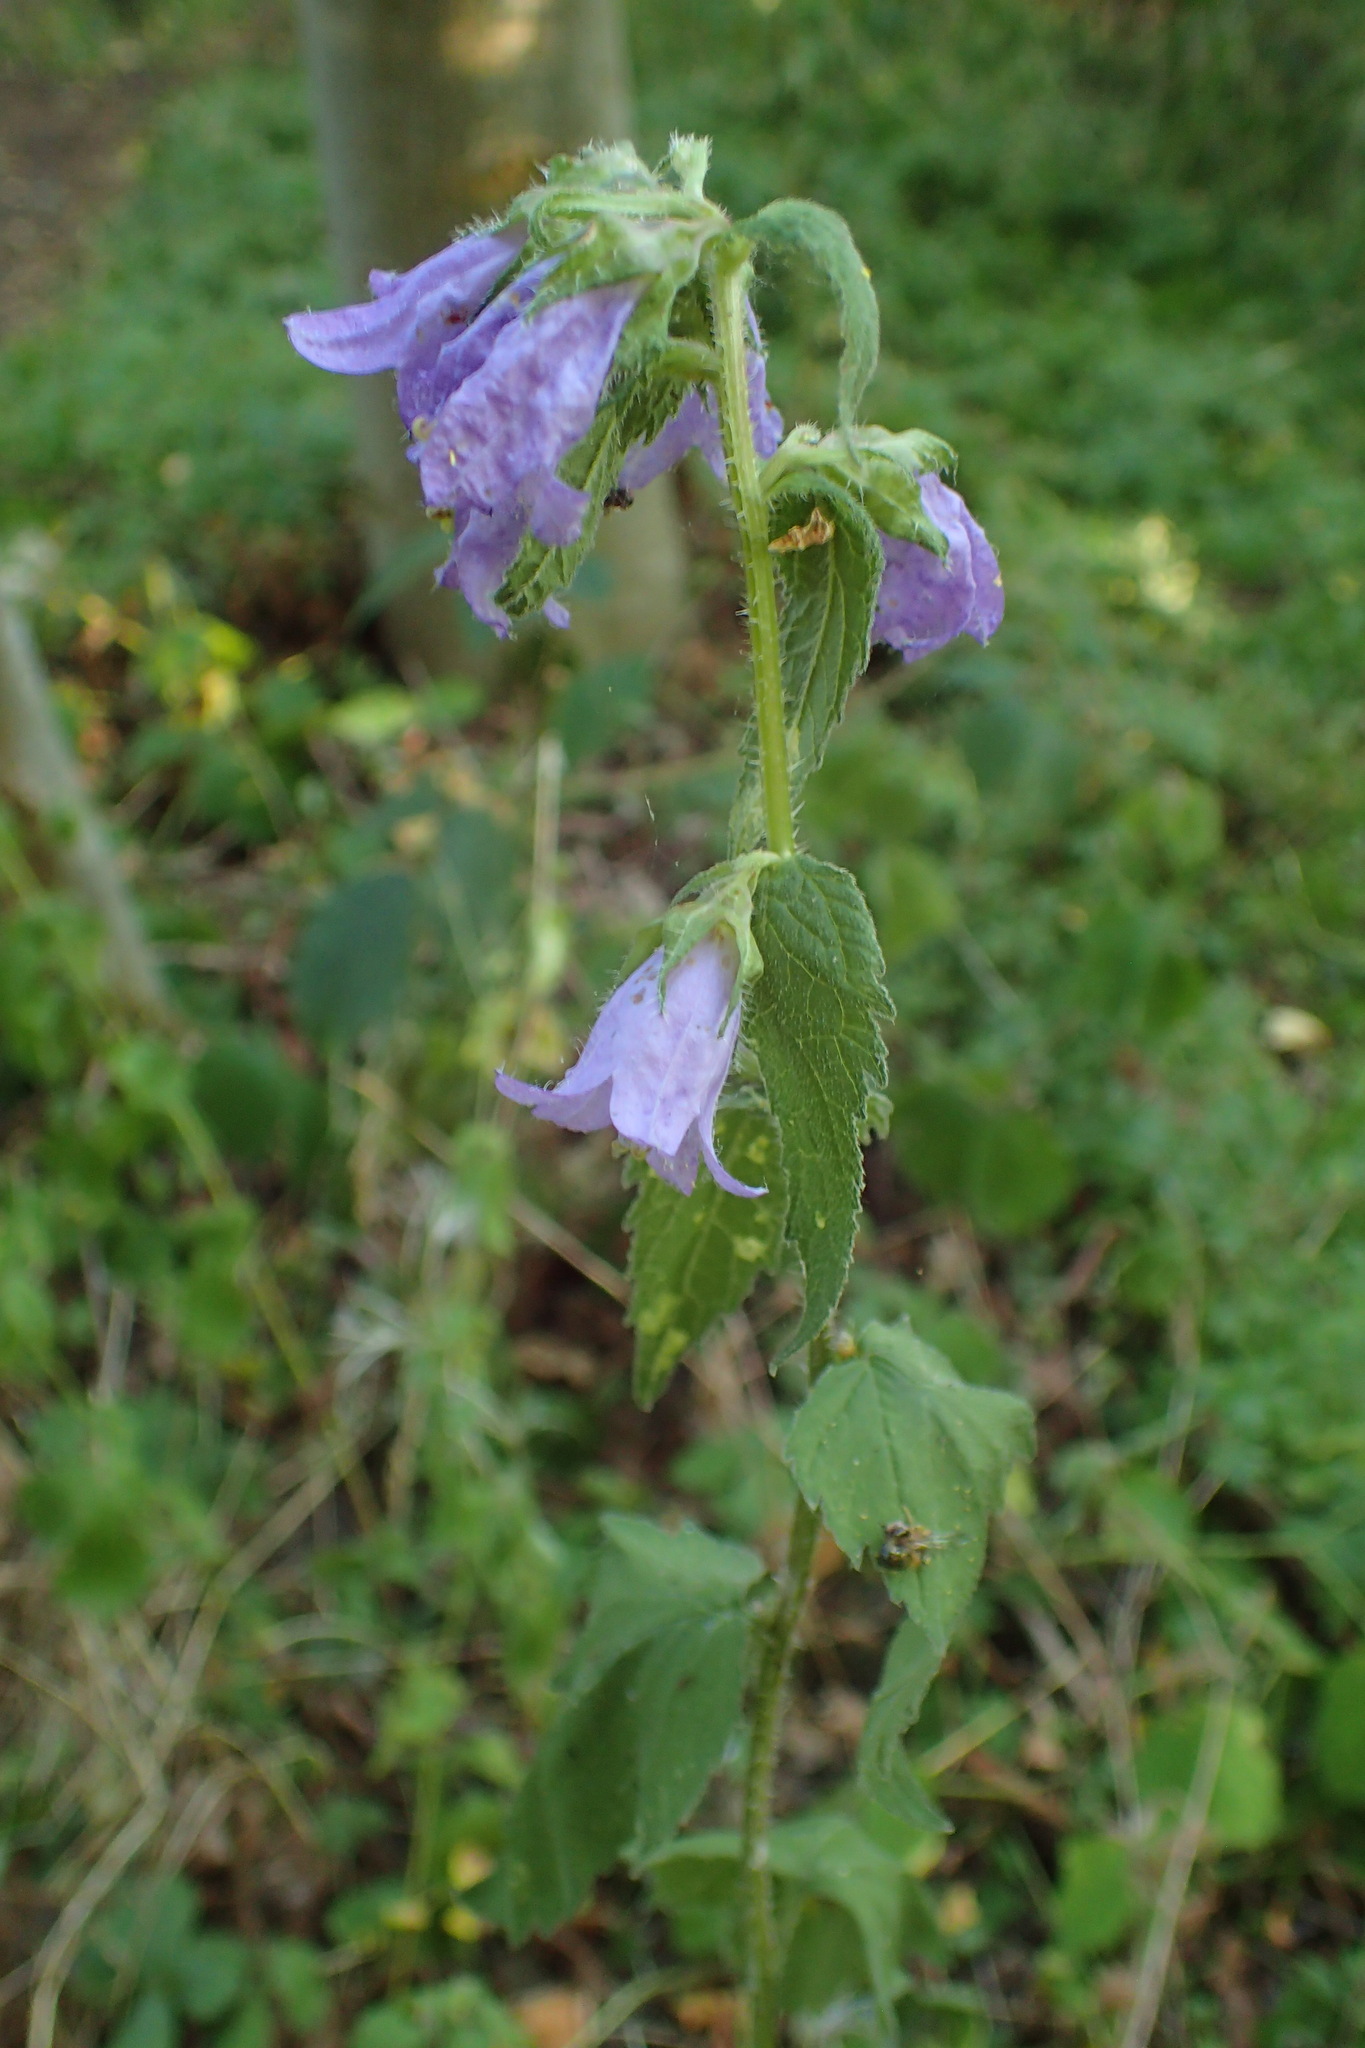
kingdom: Plantae
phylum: Tracheophyta
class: Magnoliopsida
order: Asterales
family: Campanulaceae
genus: Campanula
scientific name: Campanula trachelium
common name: Nettle-leaved bellflower
